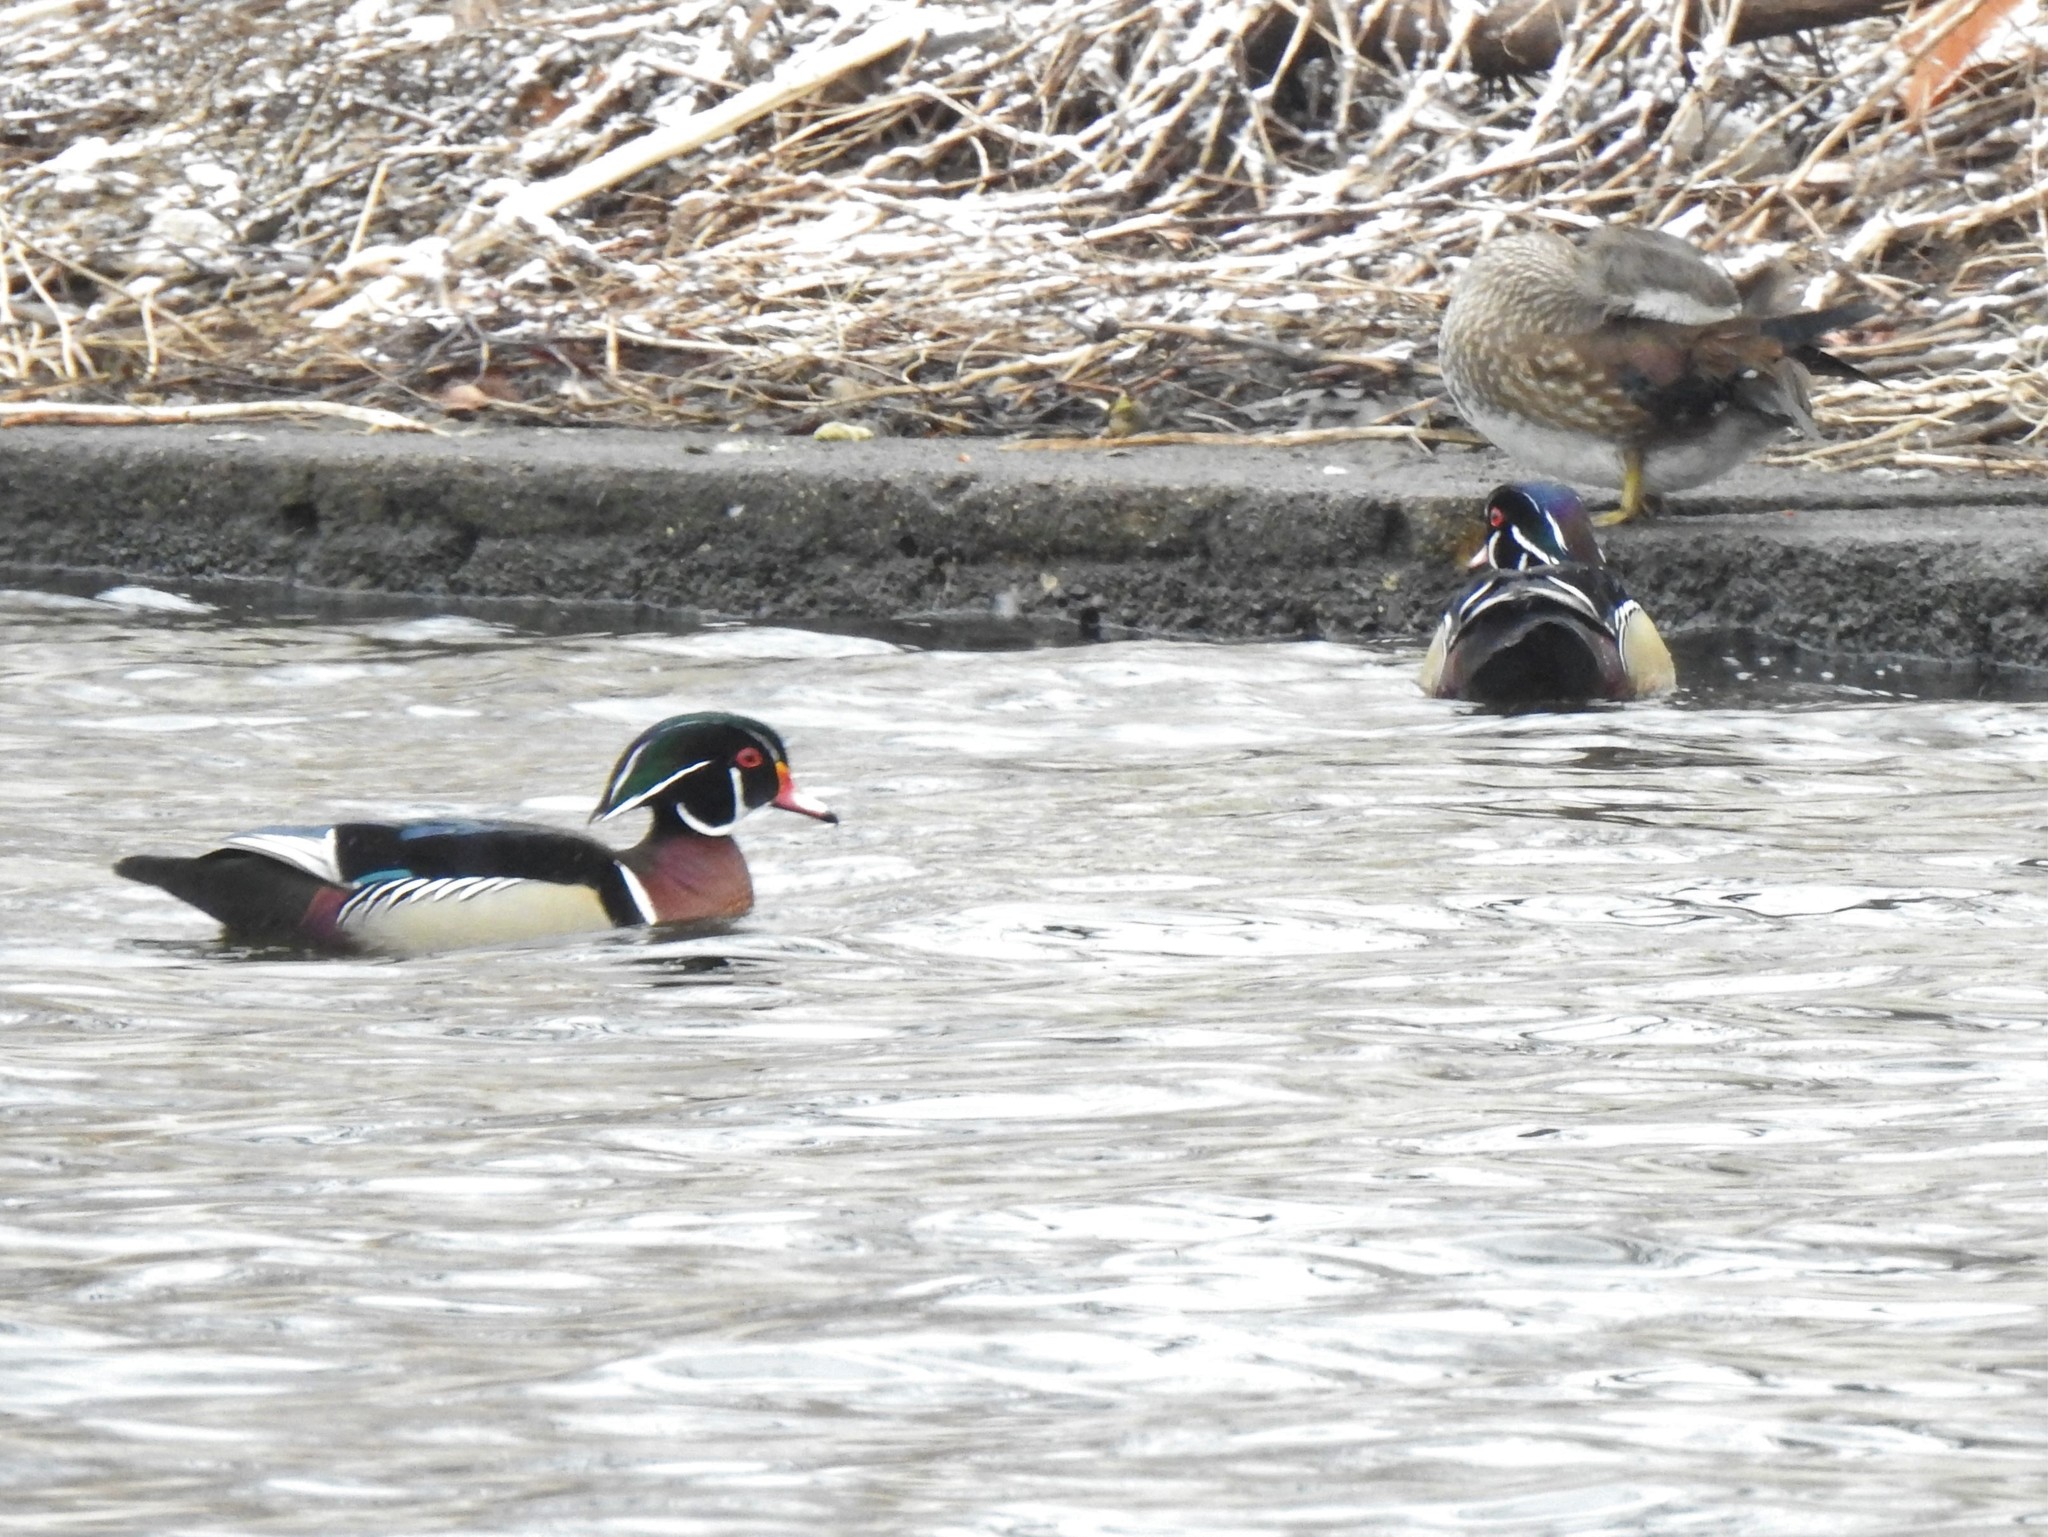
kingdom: Animalia
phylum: Chordata
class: Aves
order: Anseriformes
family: Anatidae
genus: Aix
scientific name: Aix sponsa
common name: Wood duck
